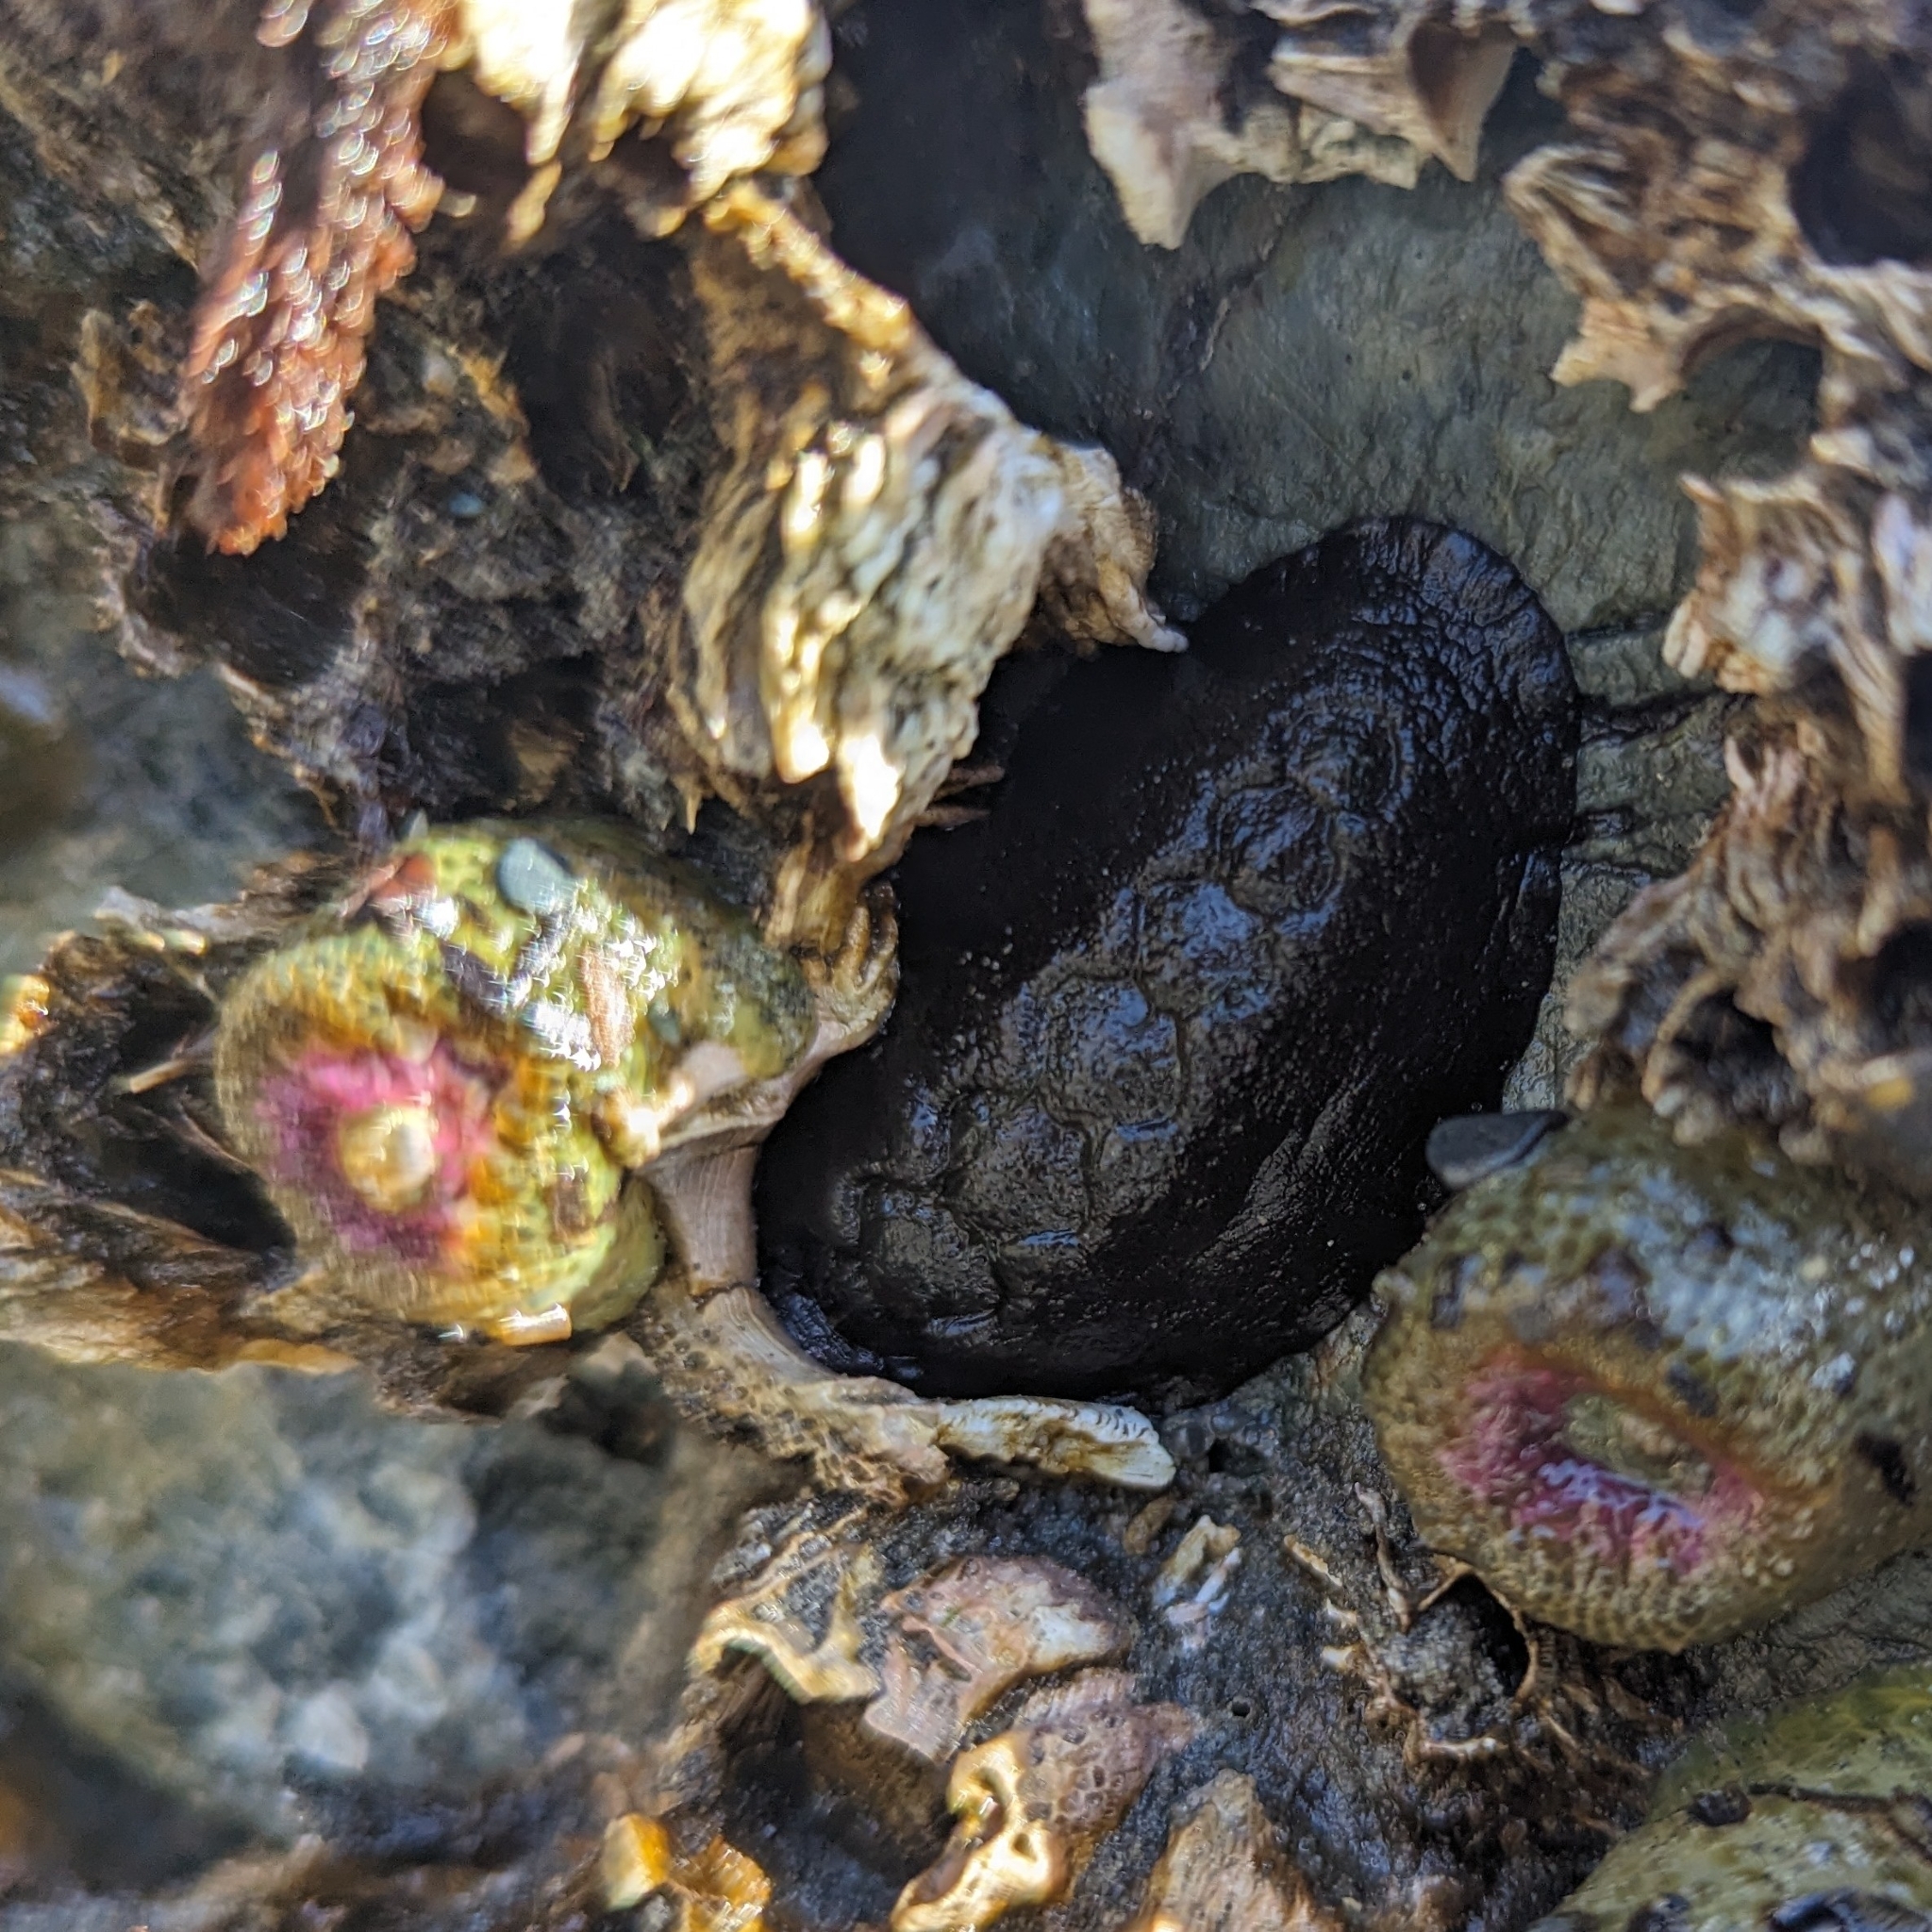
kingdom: Animalia
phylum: Mollusca
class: Polyplacophora
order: Chitonida
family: Mopaliidae
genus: Katharina
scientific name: Katharina tunicata
